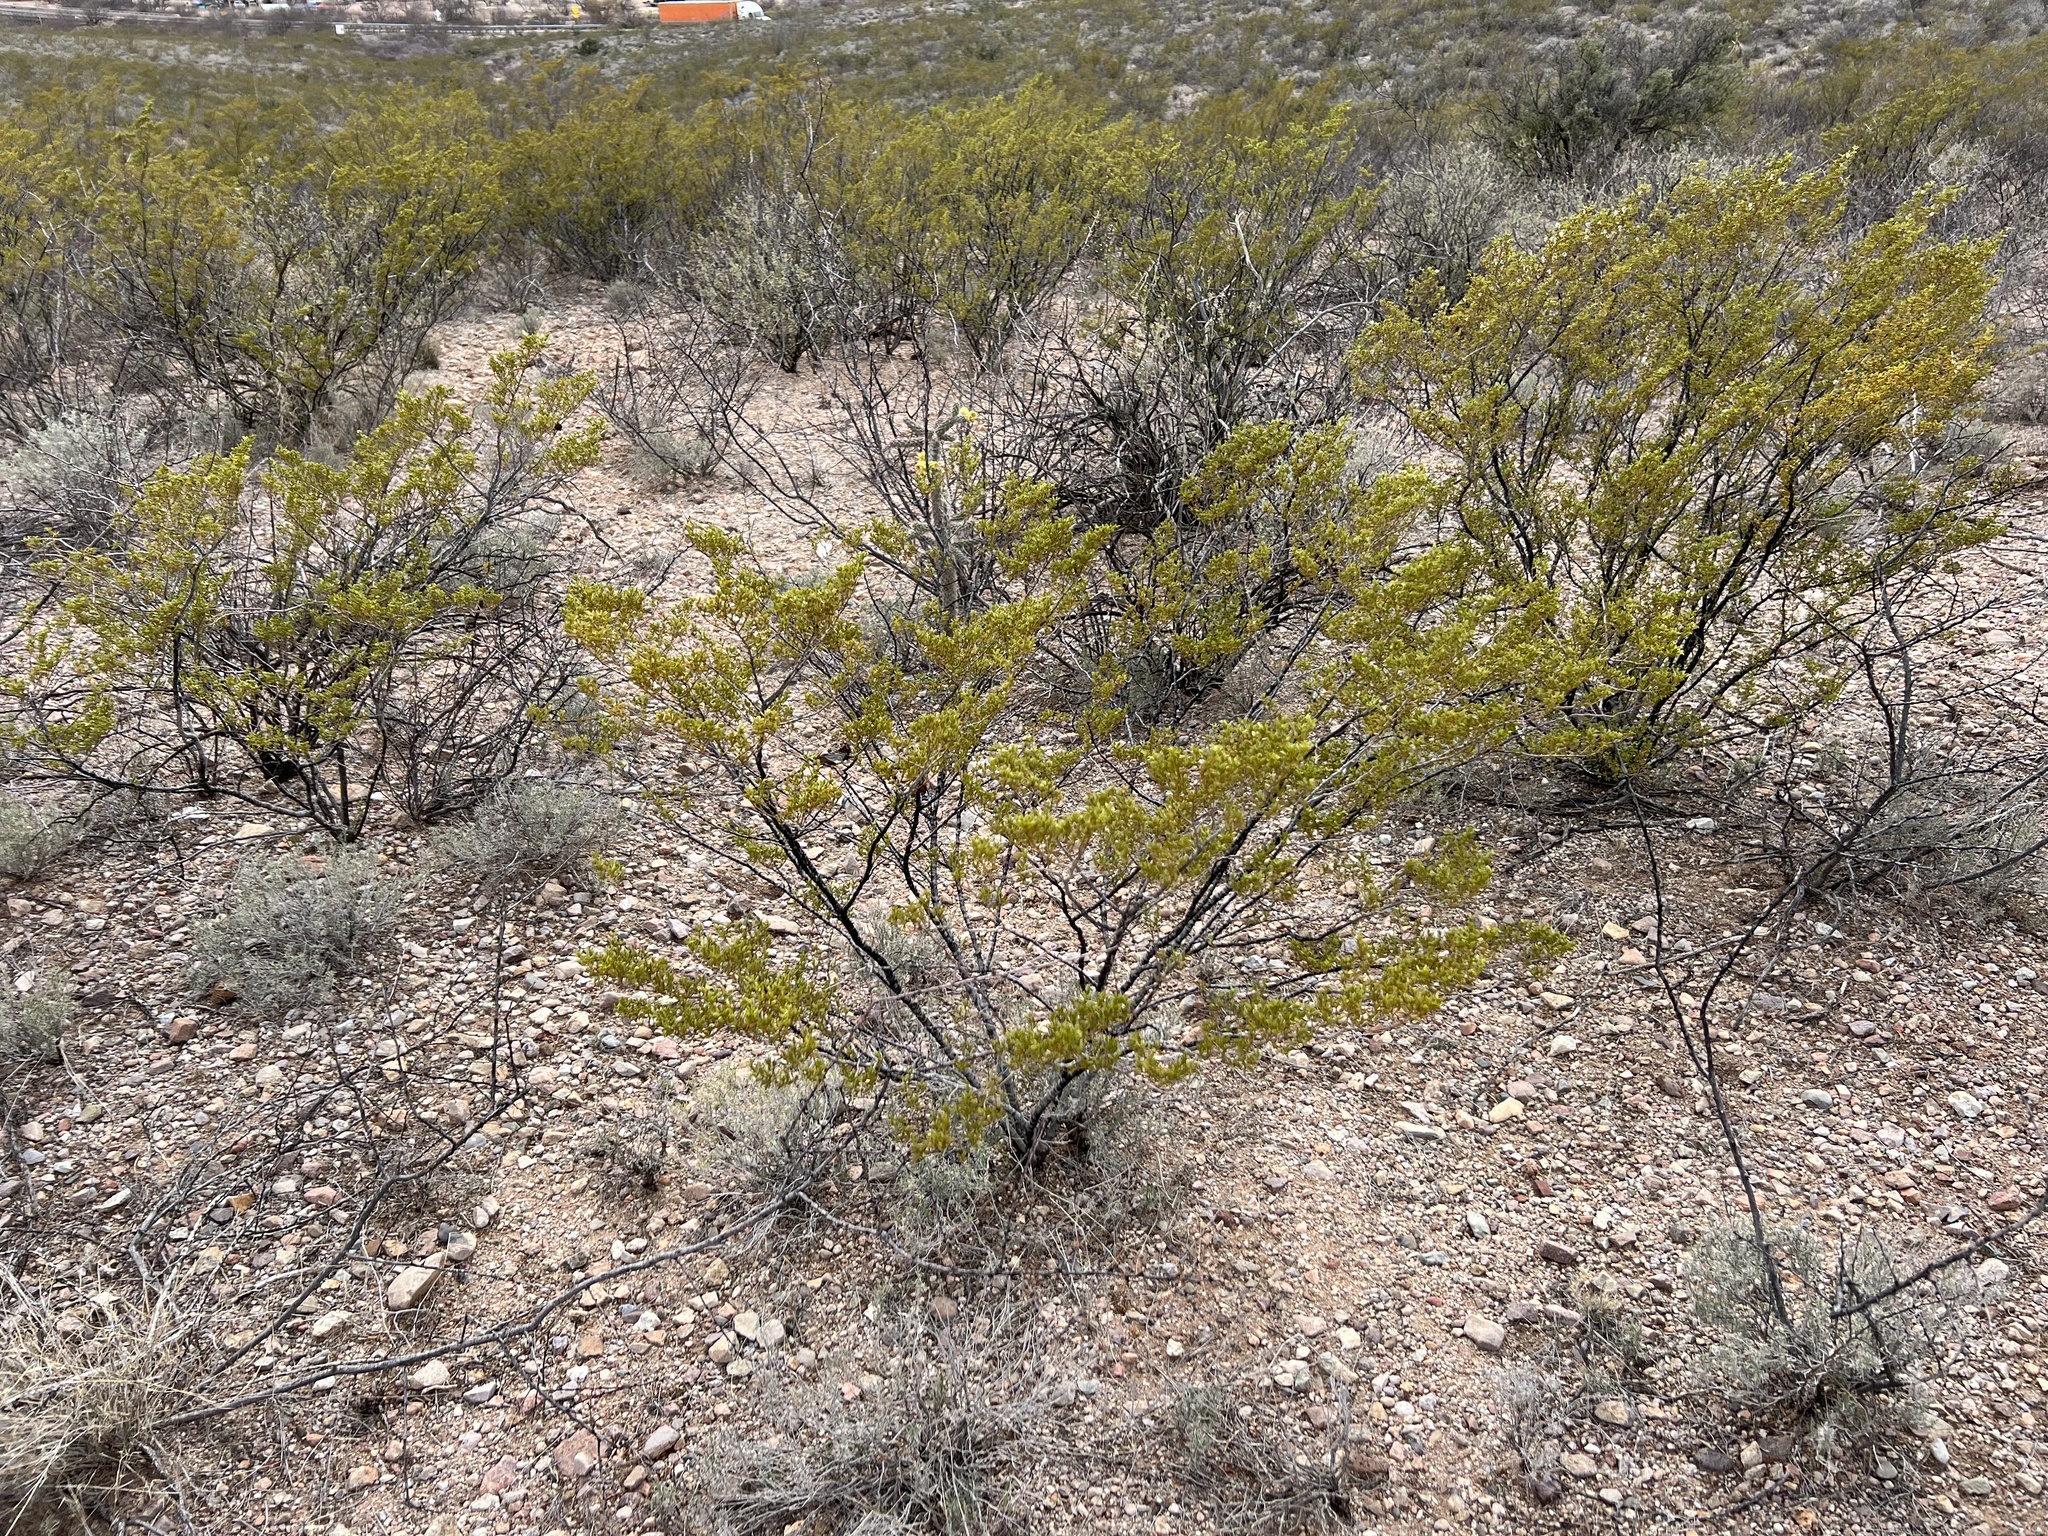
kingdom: Plantae
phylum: Tracheophyta
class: Magnoliopsida
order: Zygophyllales
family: Zygophyllaceae
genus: Larrea
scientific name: Larrea tridentata
